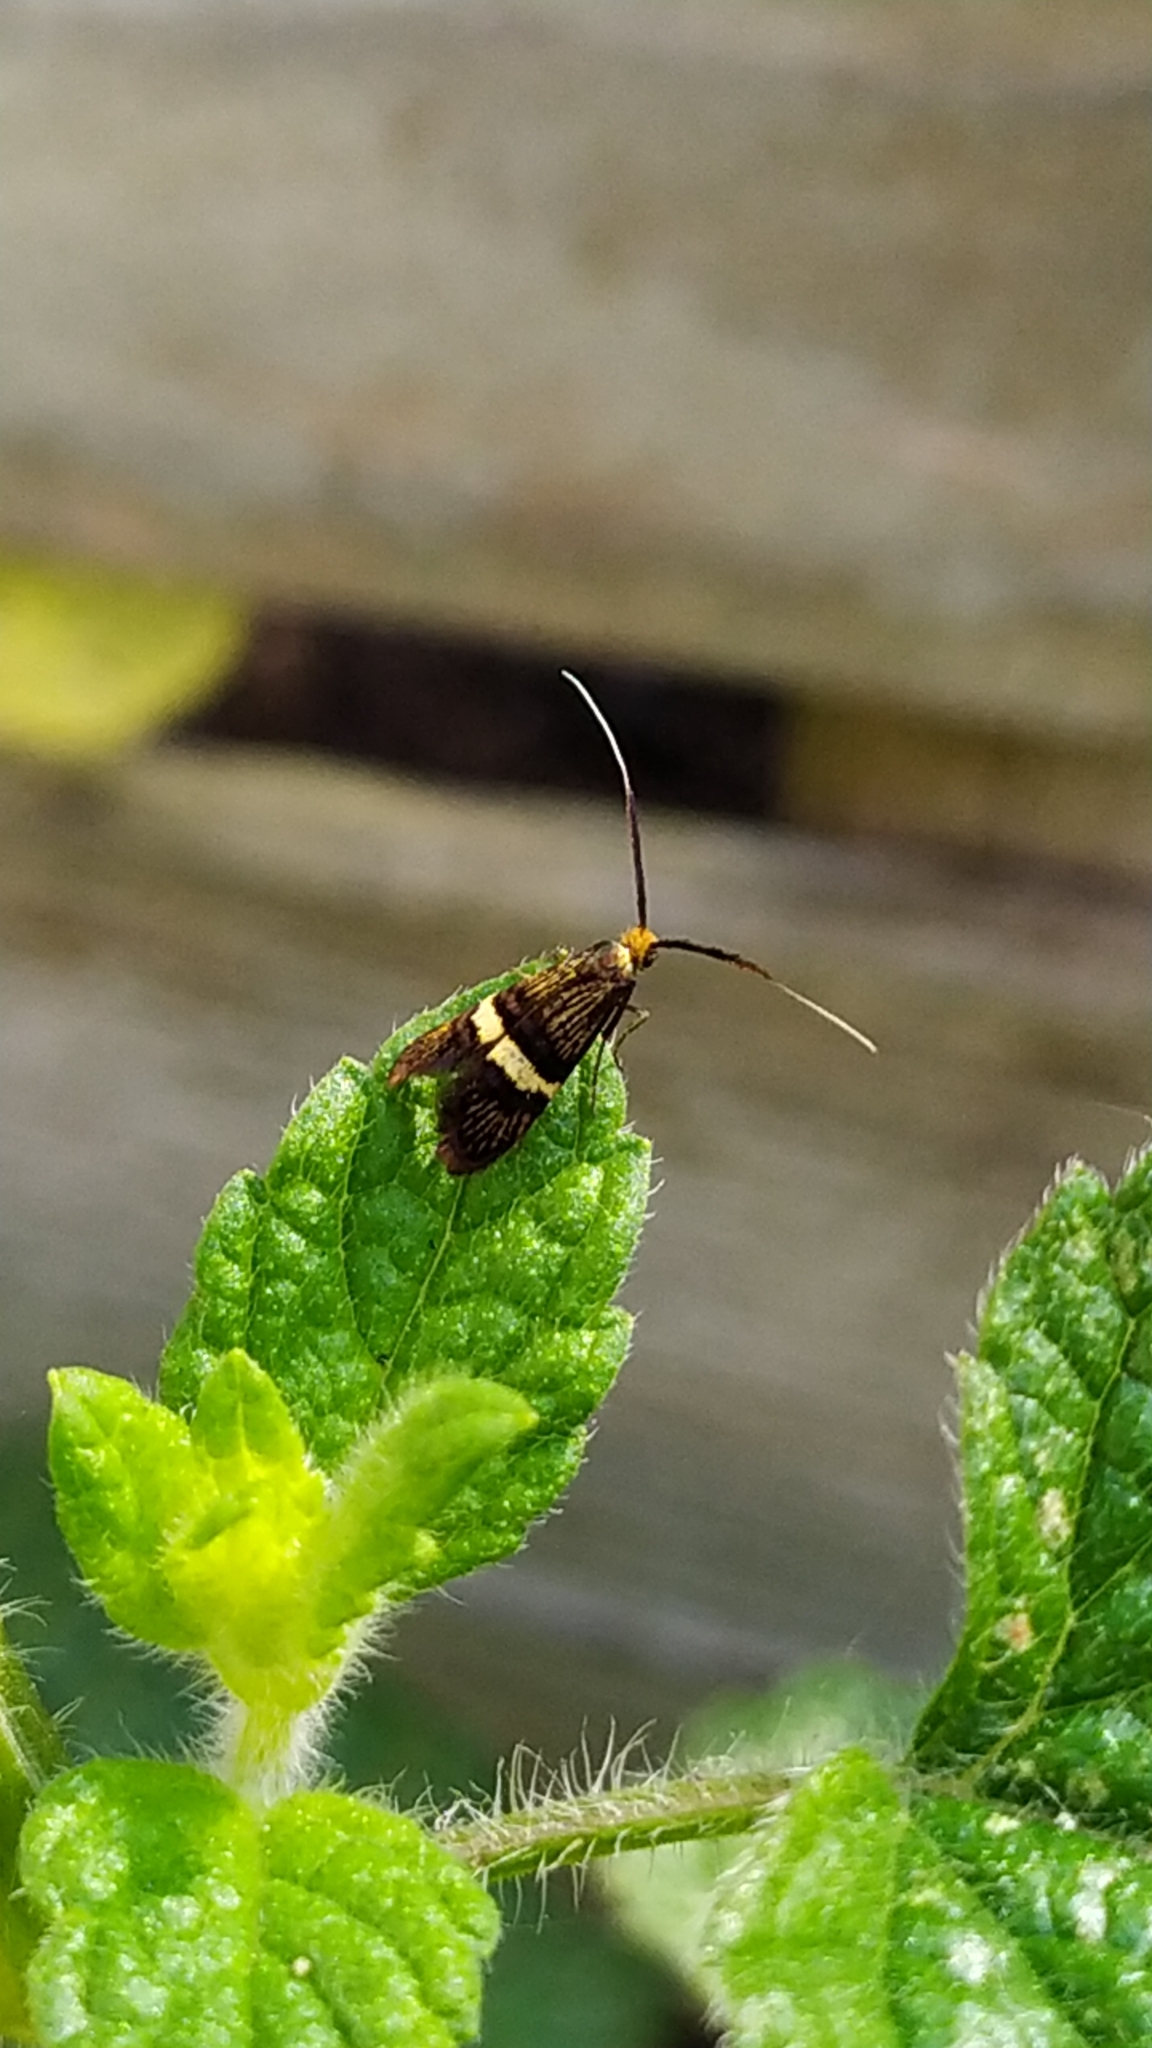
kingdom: Animalia
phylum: Arthropoda
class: Insecta
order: Lepidoptera
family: Adelidae
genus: Adela
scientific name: Adela croesella
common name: Small barred long-horn
